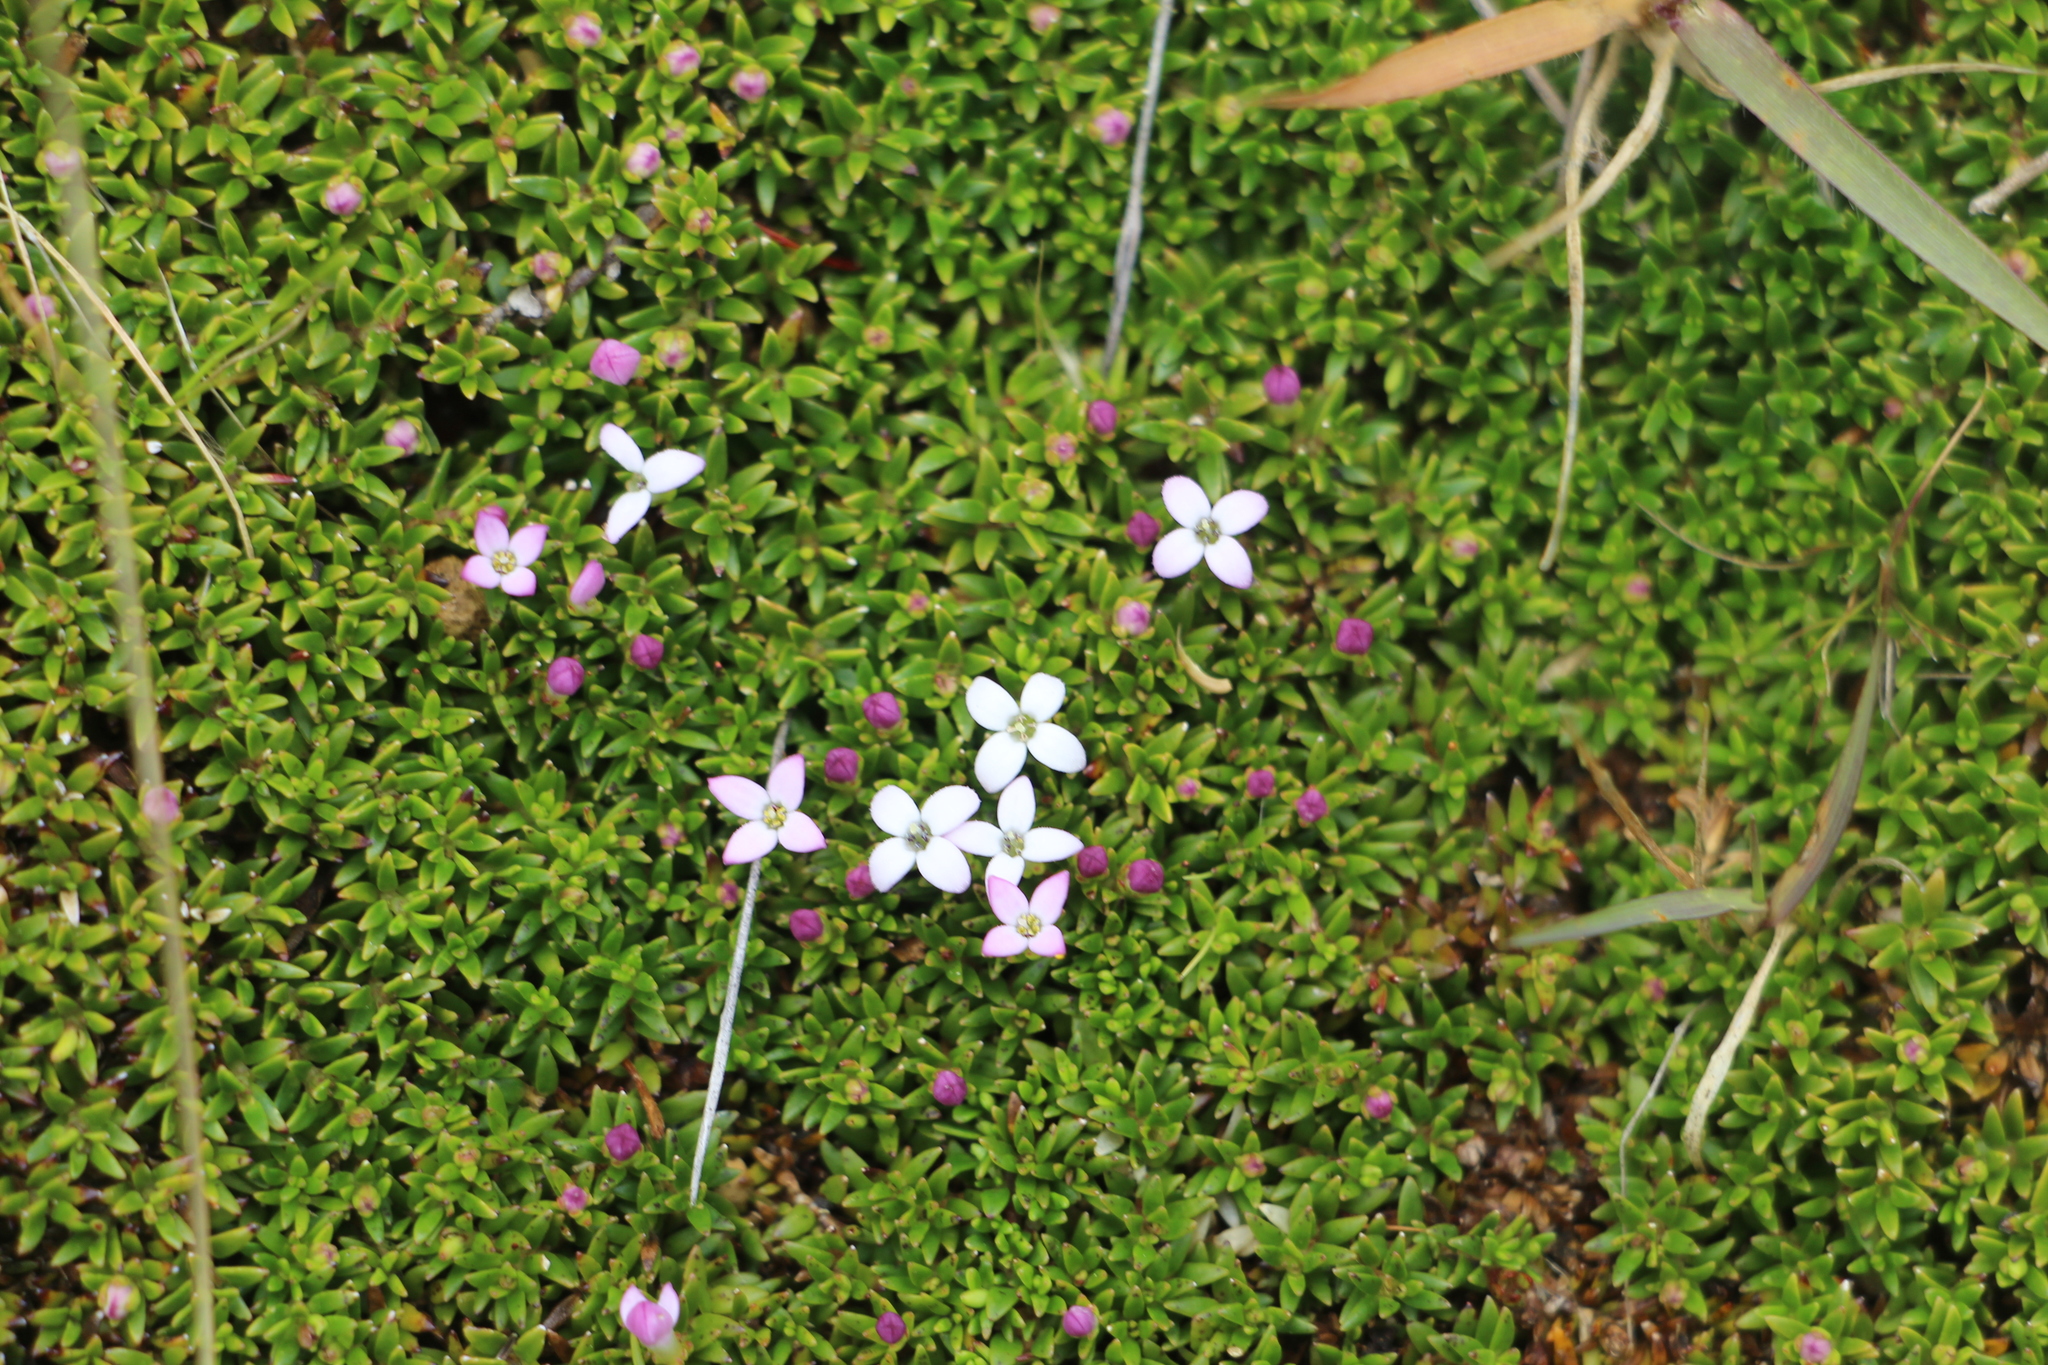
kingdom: Plantae
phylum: Tracheophyta
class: Magnoliopsida
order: Gentianales
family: Rubiaceae
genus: Arcytophyllum
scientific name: Arcytophyllum muticum
